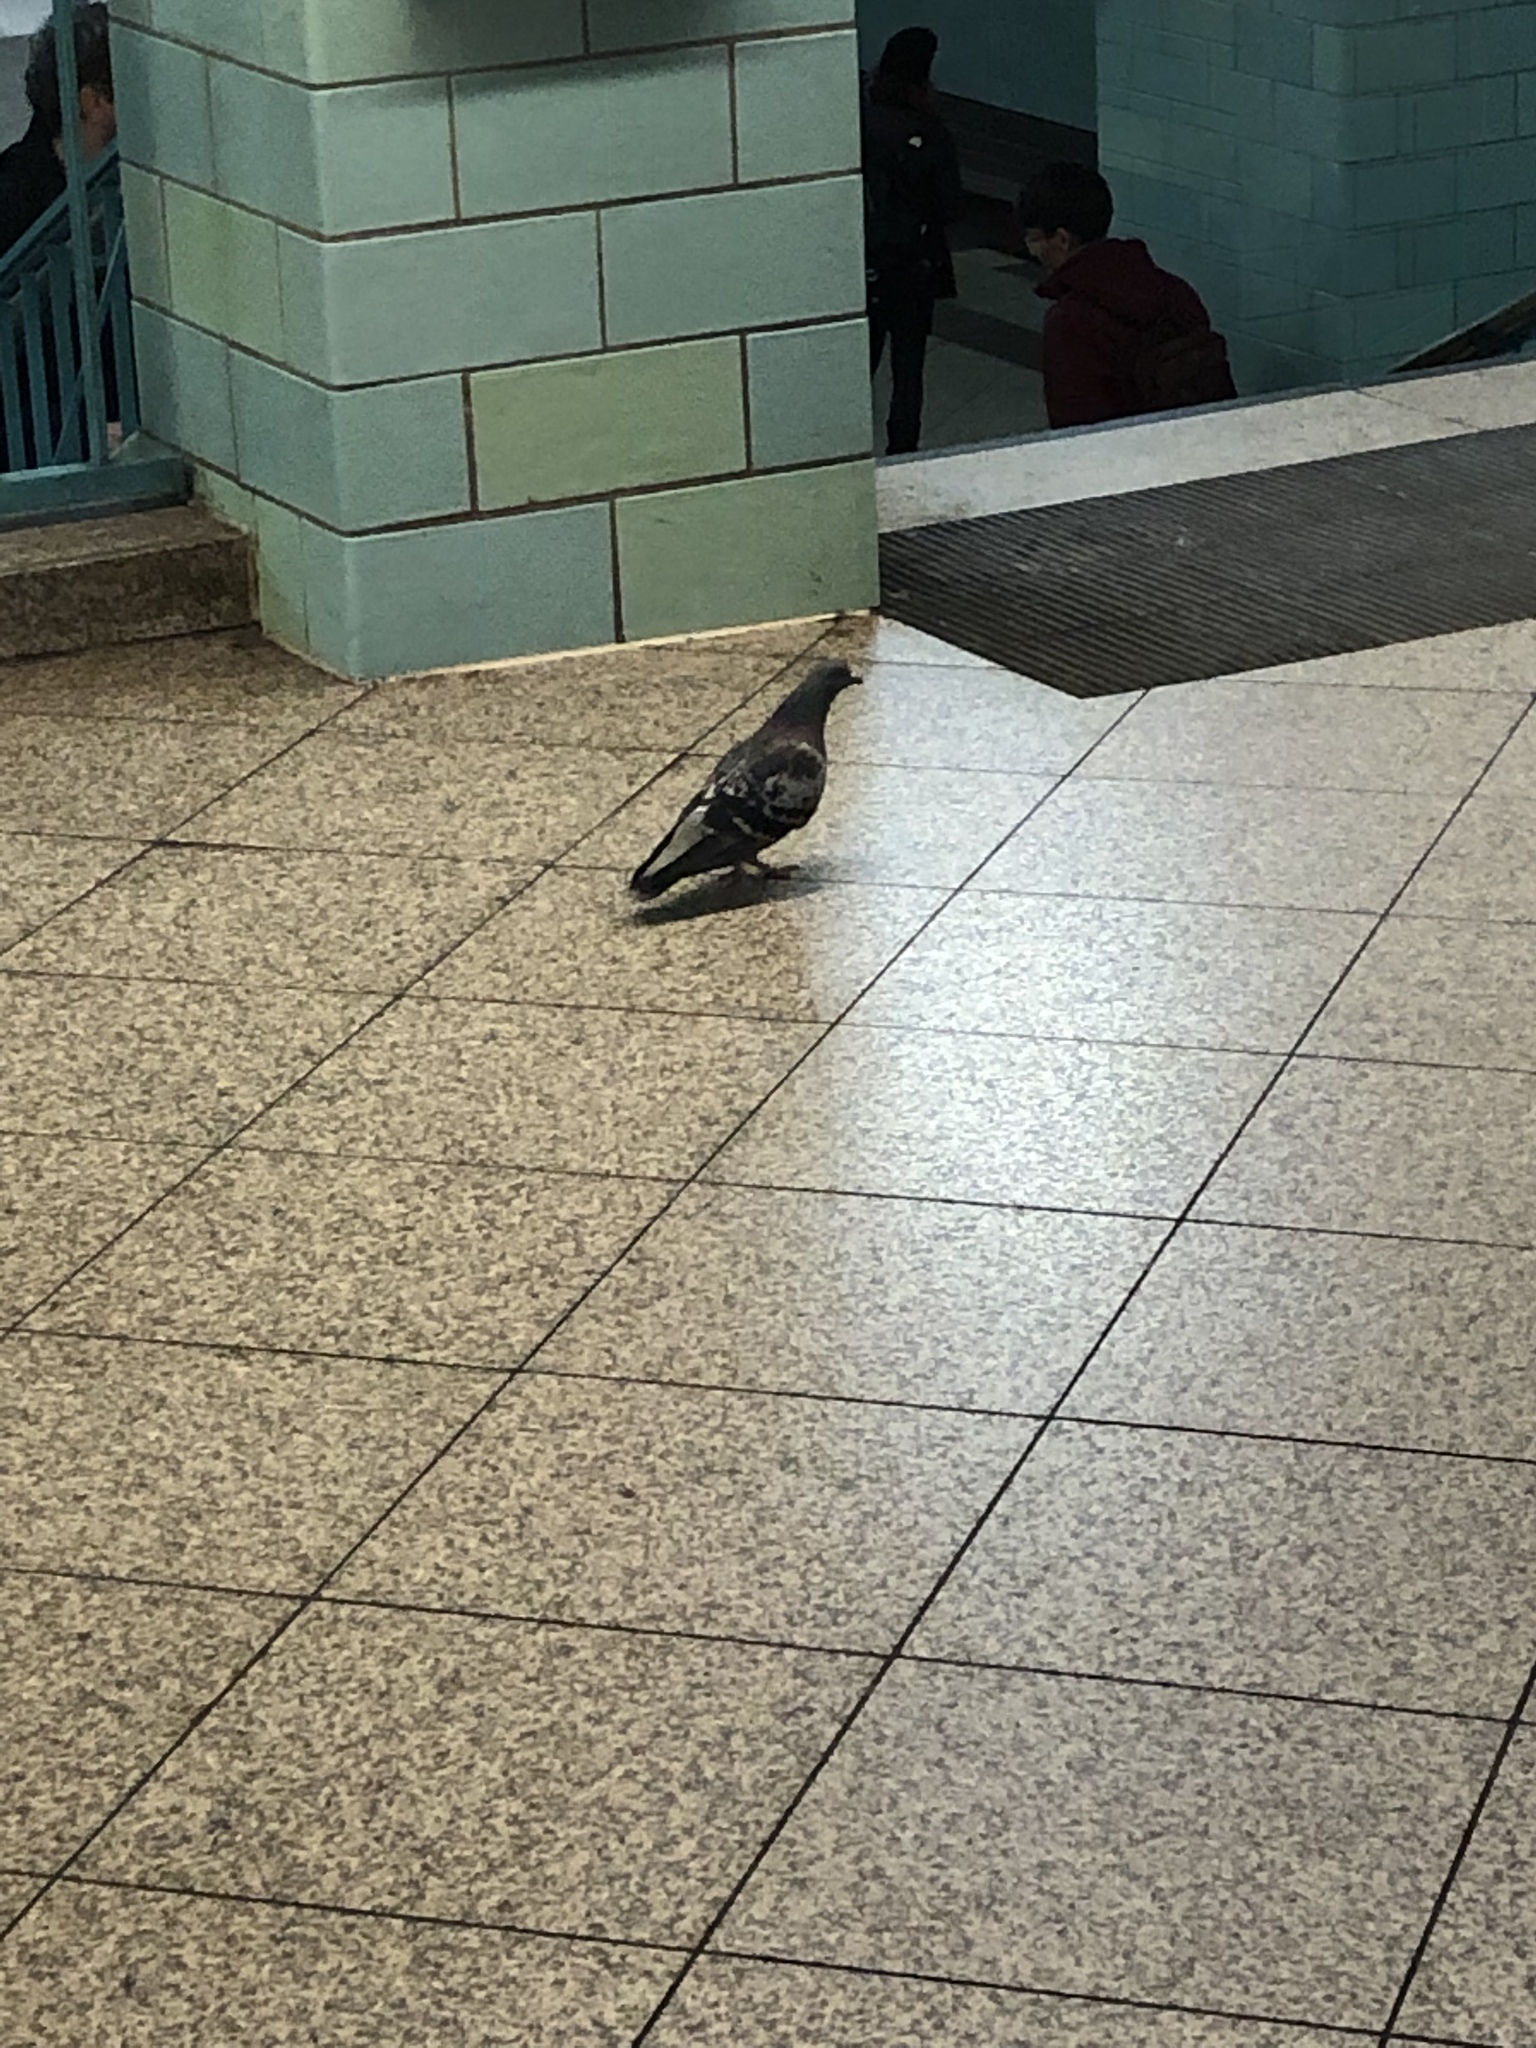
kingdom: Animalia
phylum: Chordata
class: Aves
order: Columbiformes
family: Columbidae
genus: Columba
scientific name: Columba livia
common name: Rock pigeon
